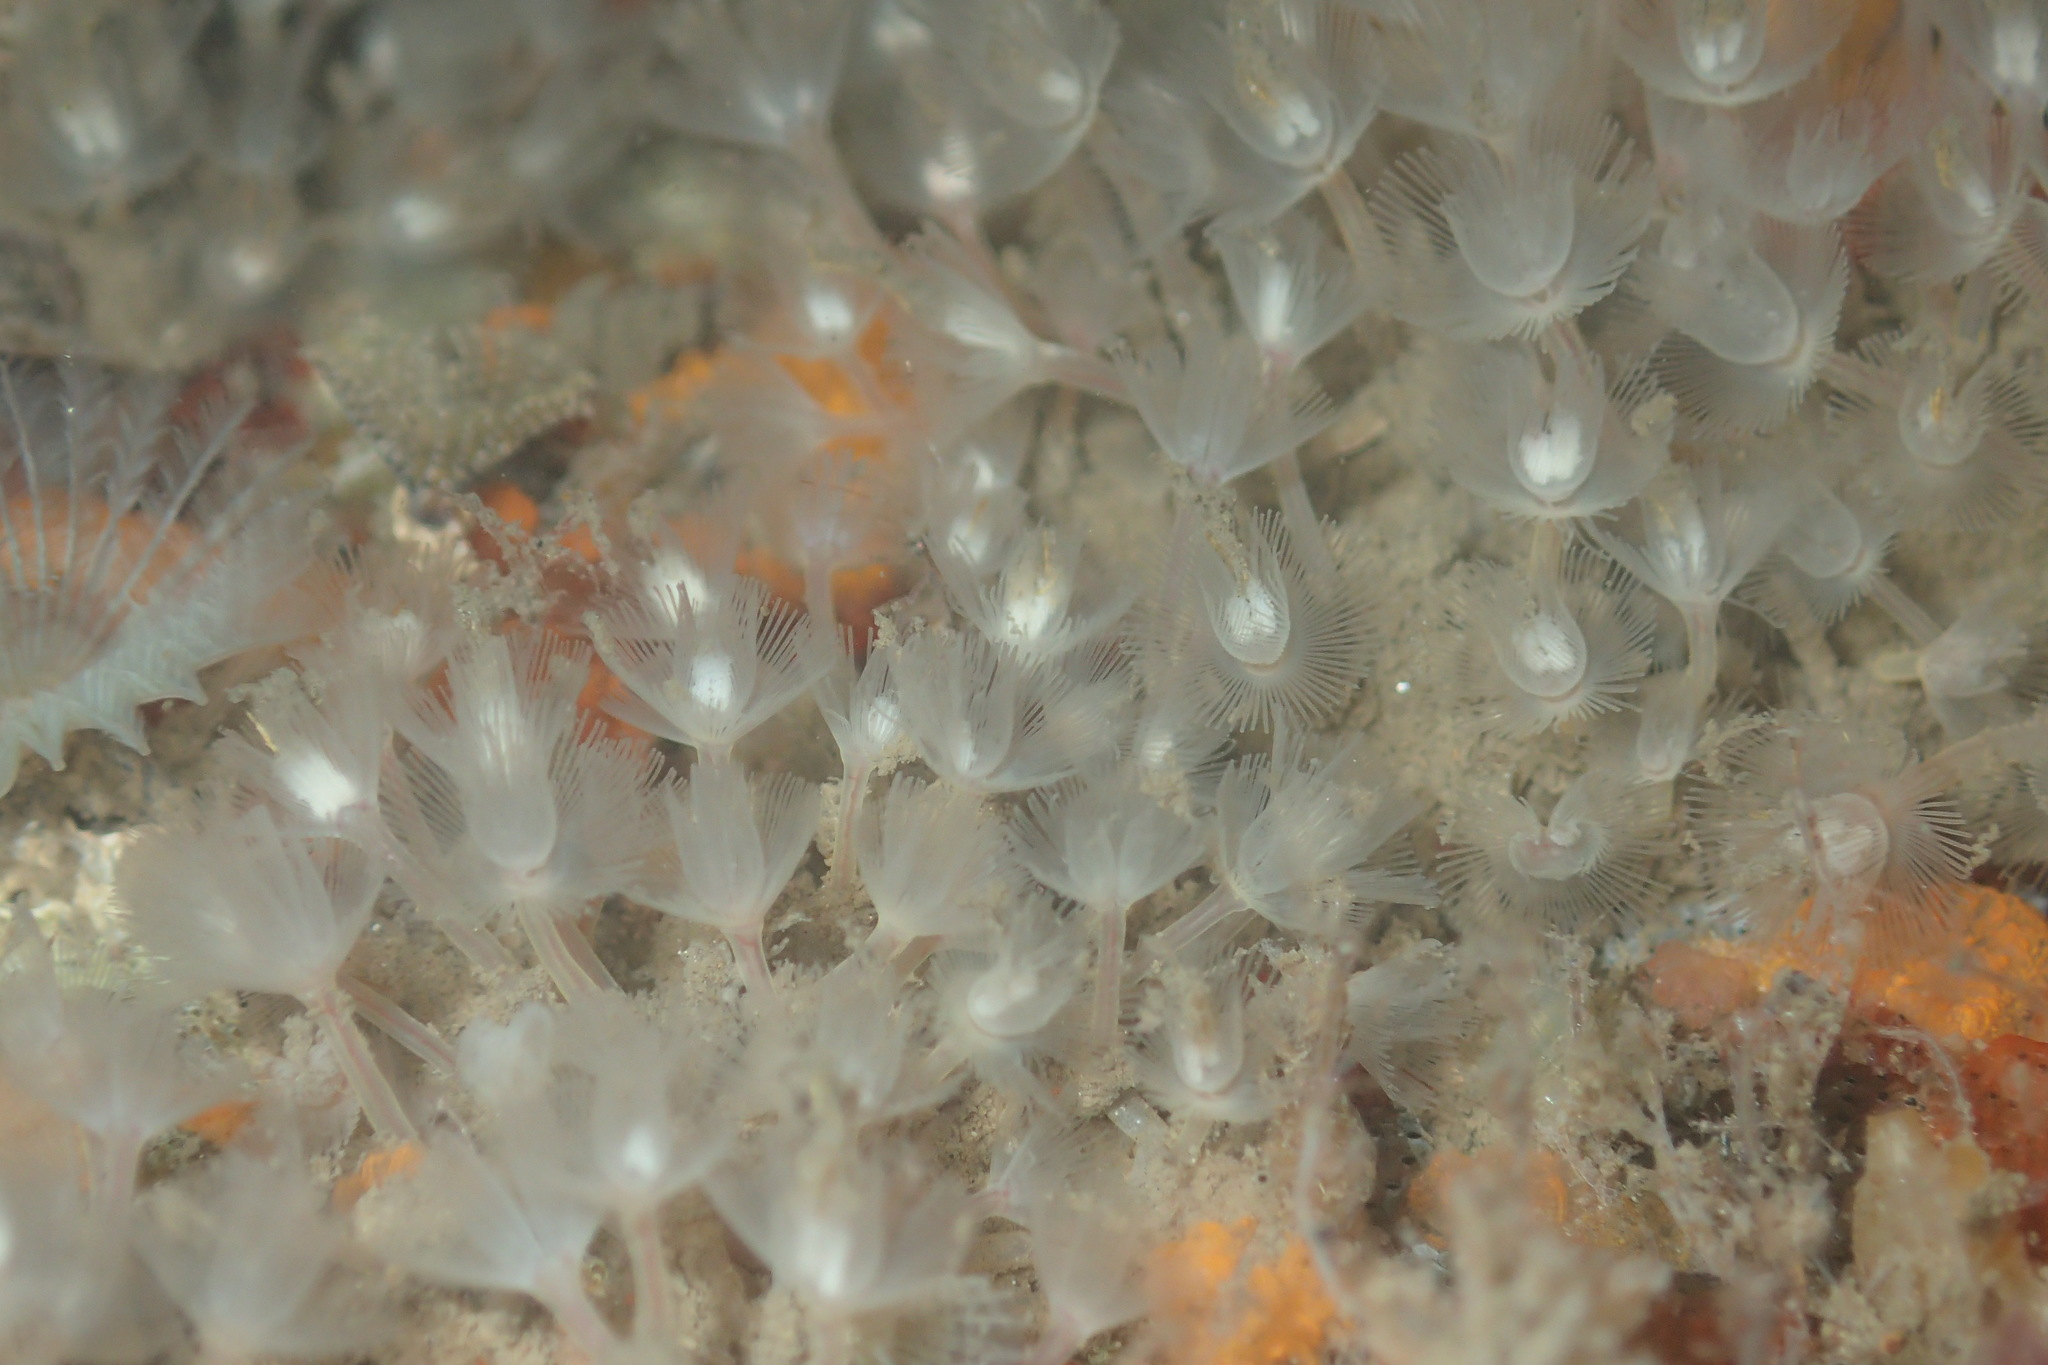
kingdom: Animalia
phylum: Phoronida
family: Phoronidae
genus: Phoronis
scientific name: Phoronis ijimai
